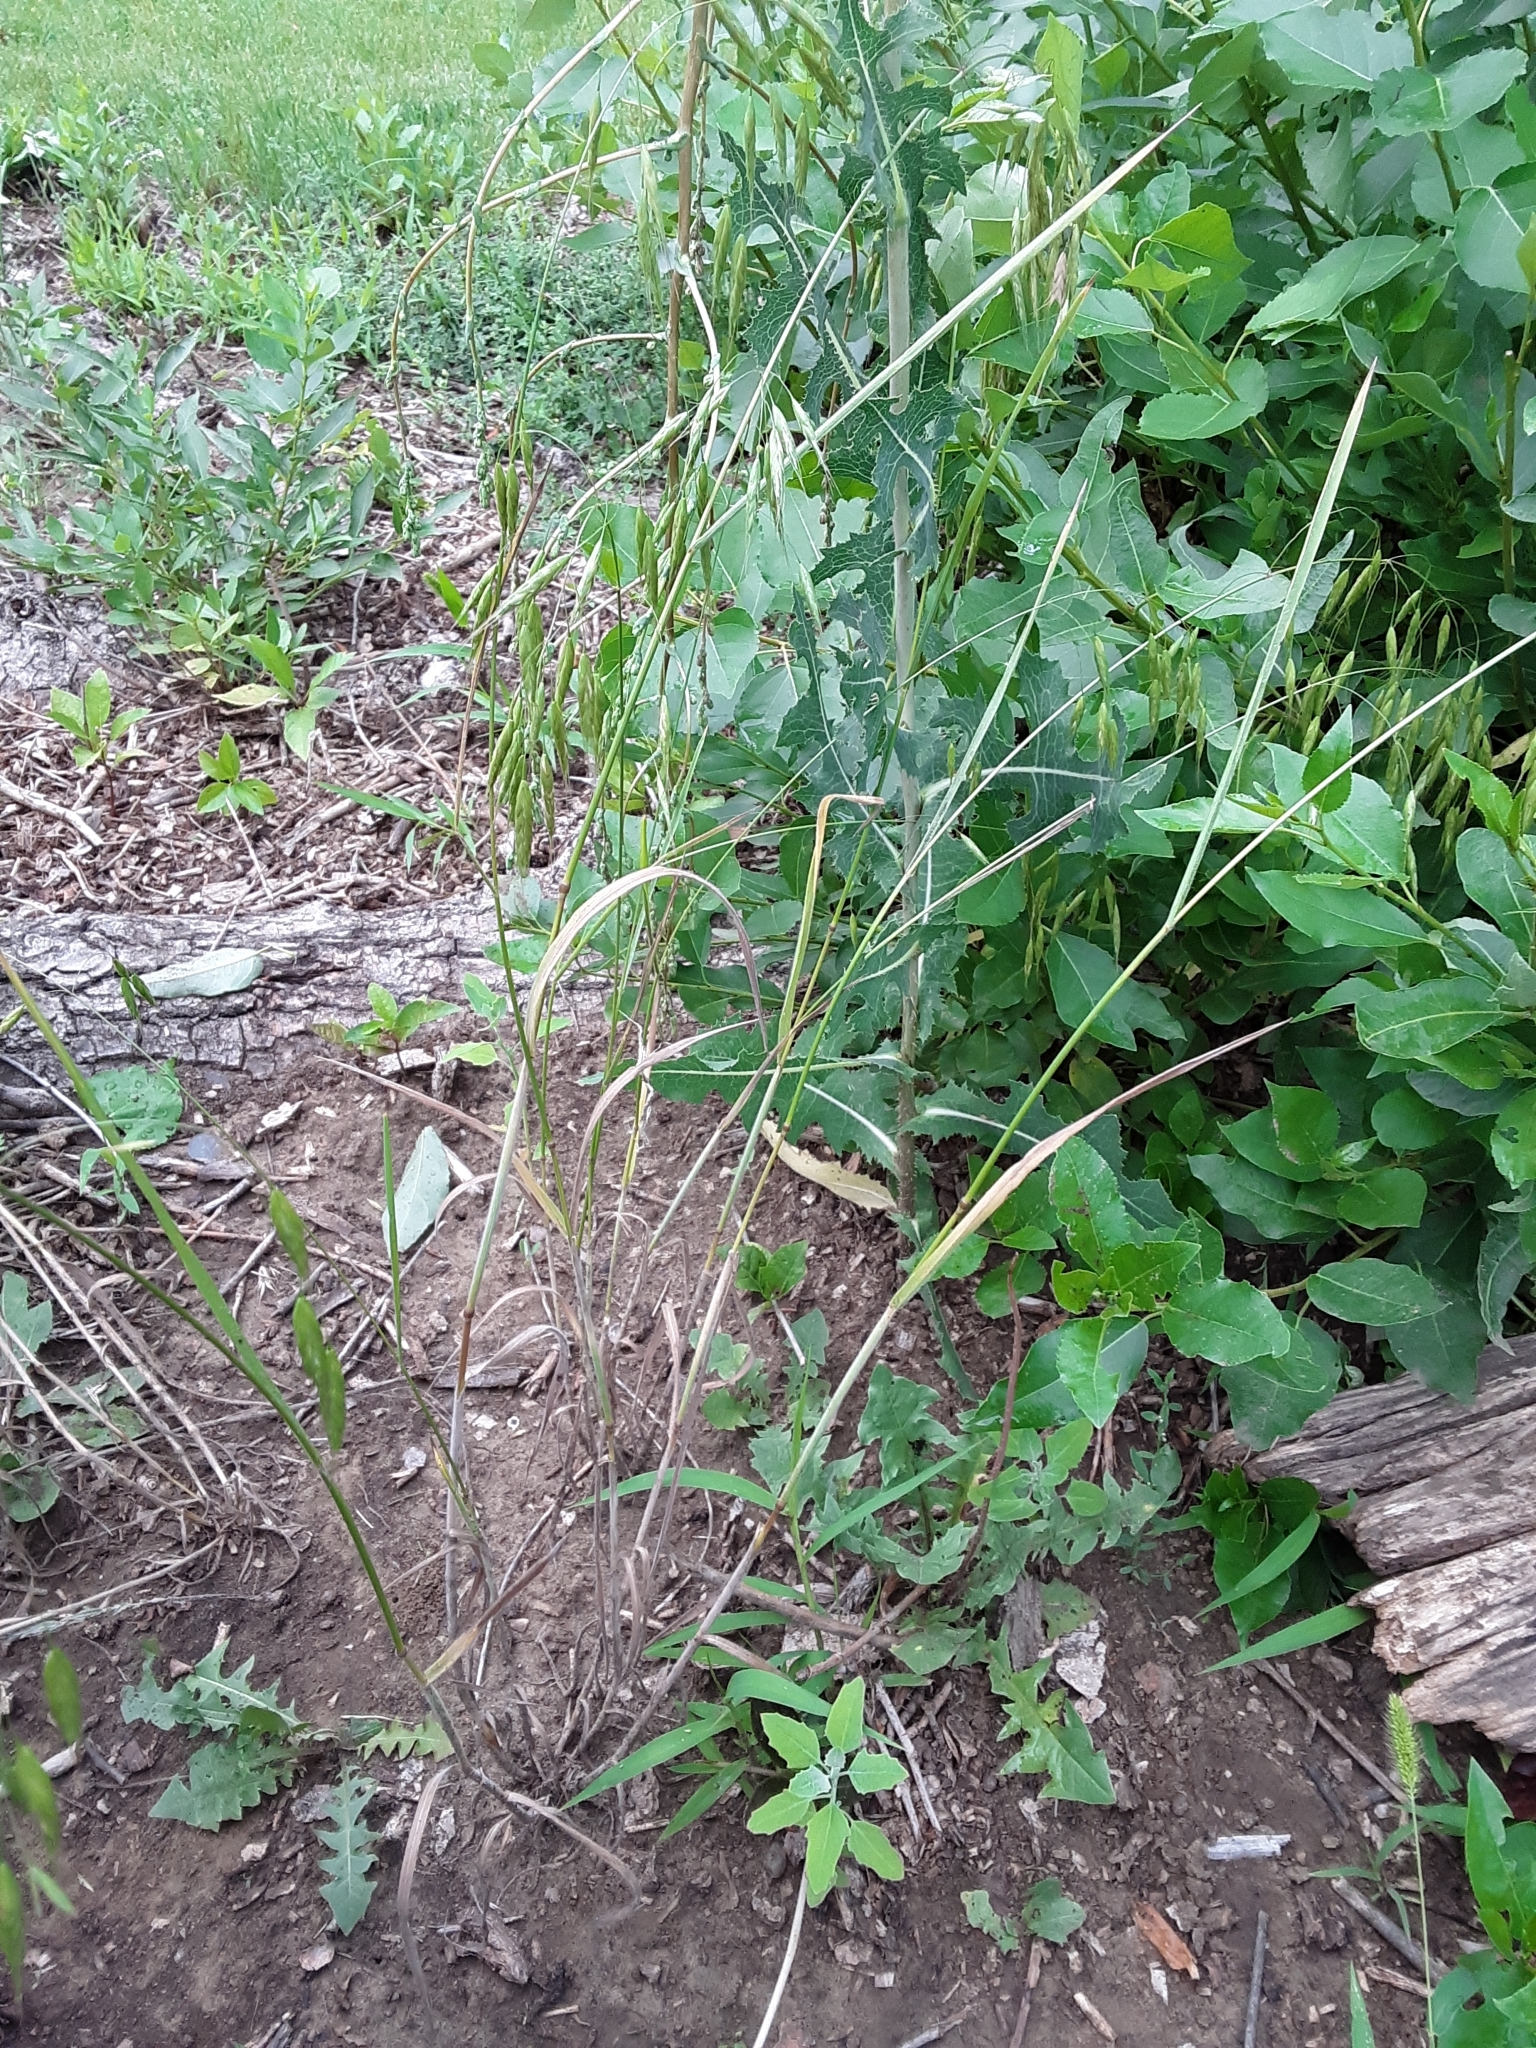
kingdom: Plantae
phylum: Tracheophyta
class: Liliopsida
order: Poales
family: Poaceae
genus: Bromus
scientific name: Bromus japonicus
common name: Japanese brome
